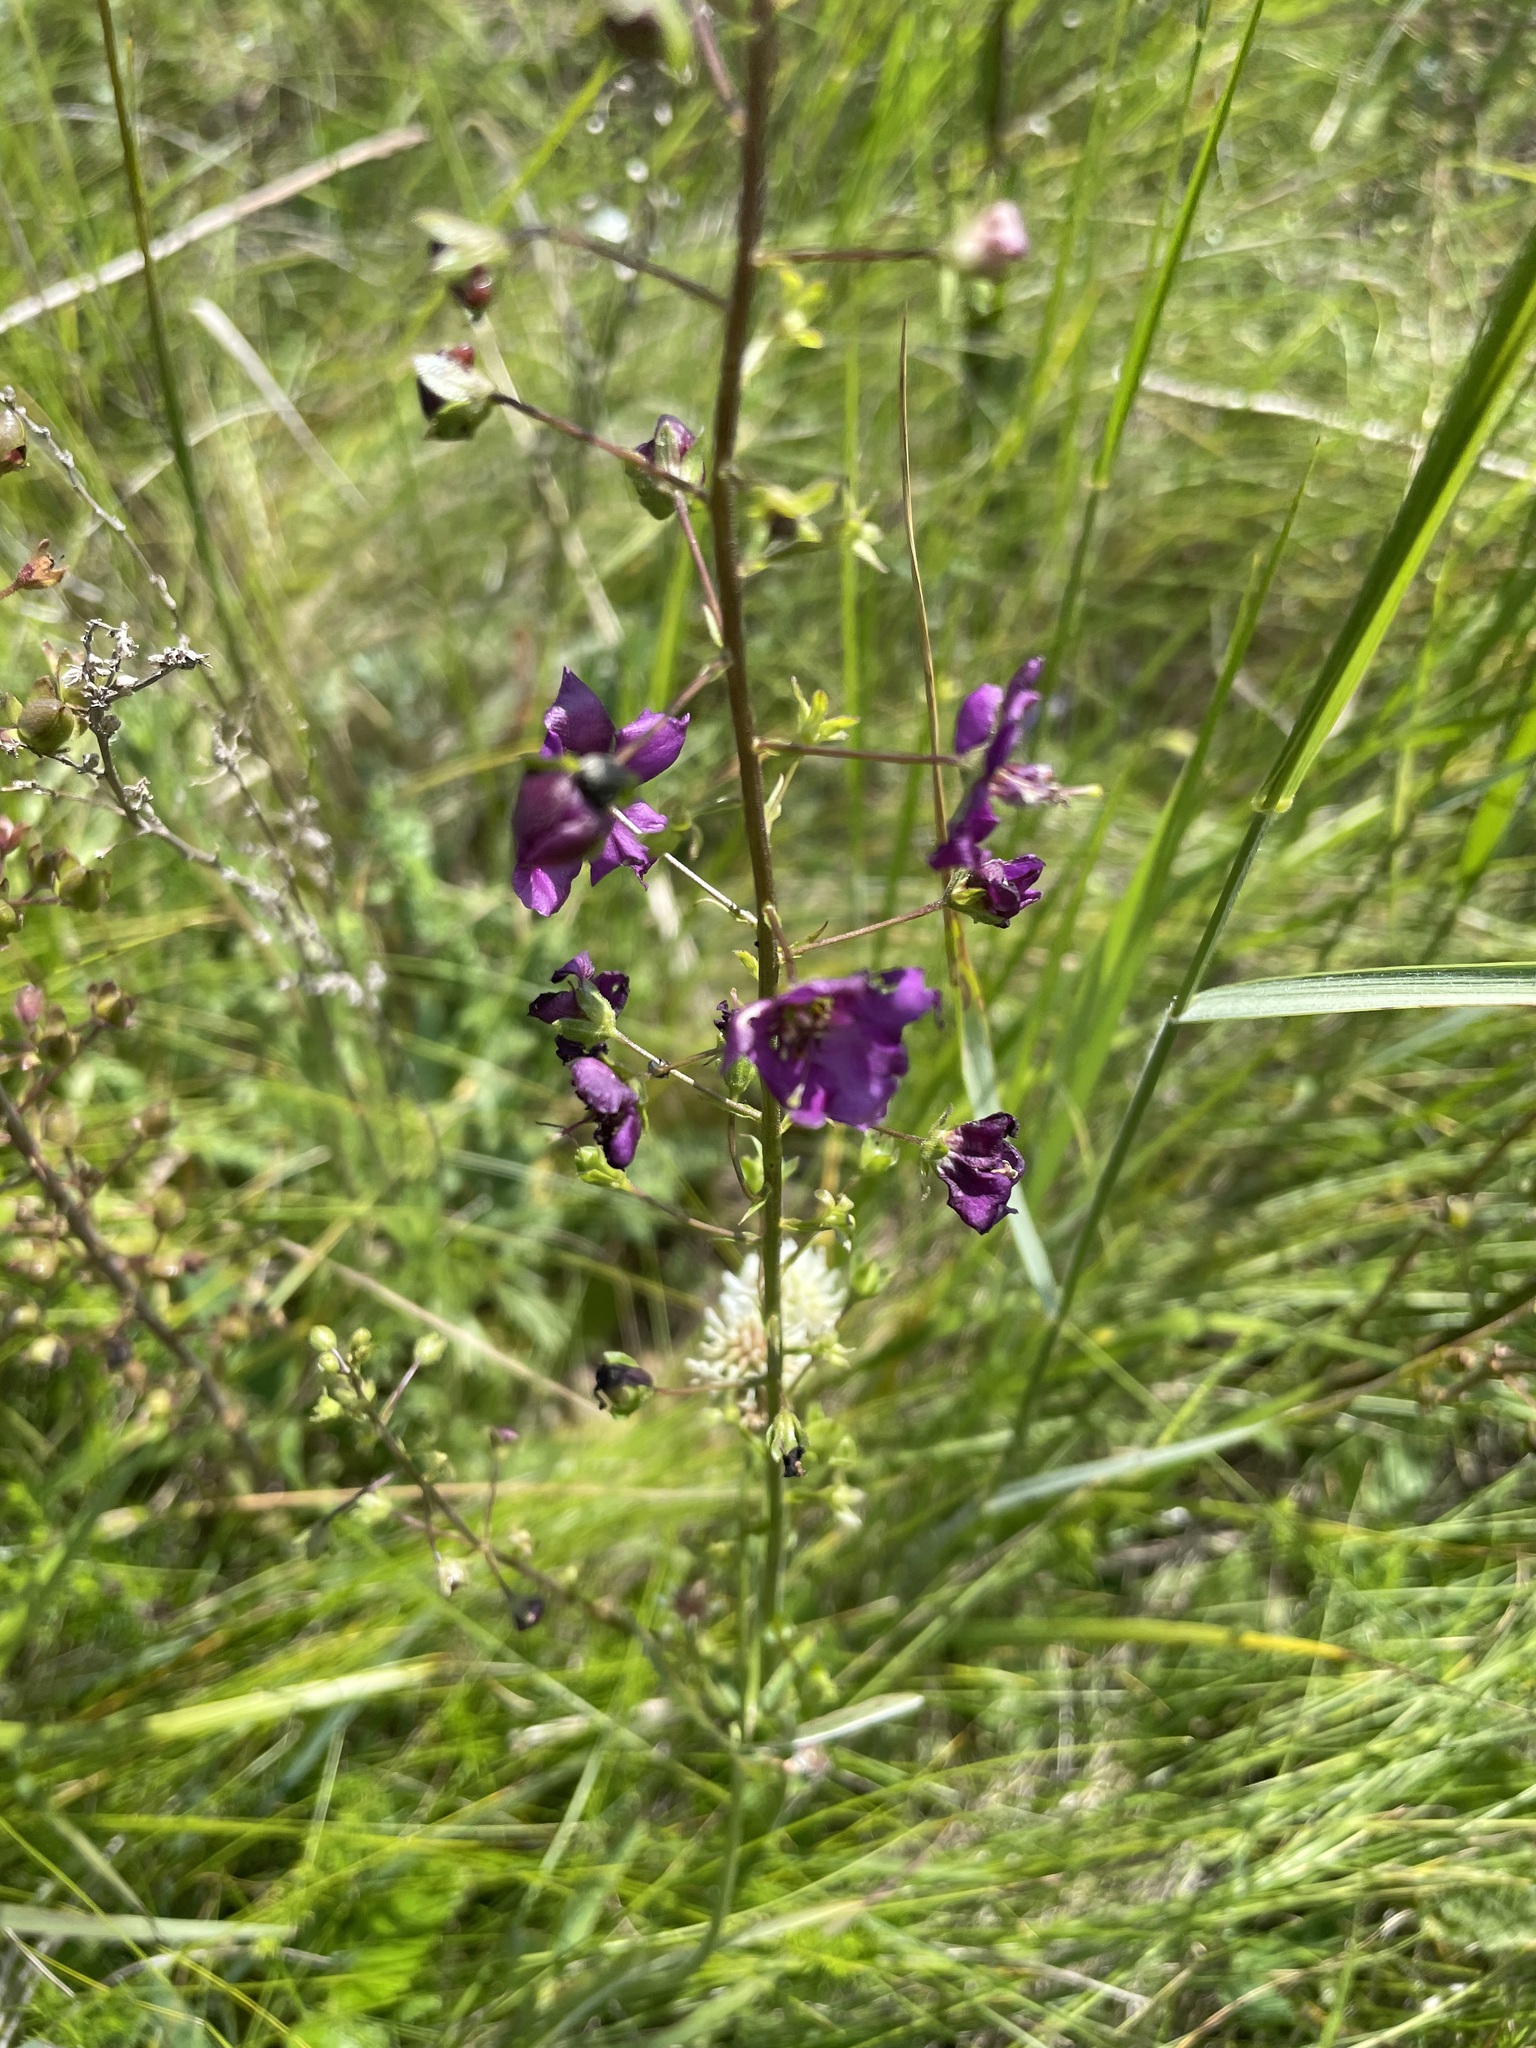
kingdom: Plantae
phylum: Tracheophyta
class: Magnoliopsida
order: Lamiales
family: Scrophulariaceae
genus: Verbascum
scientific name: Verbascum phoeniceum
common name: Purple mullein
